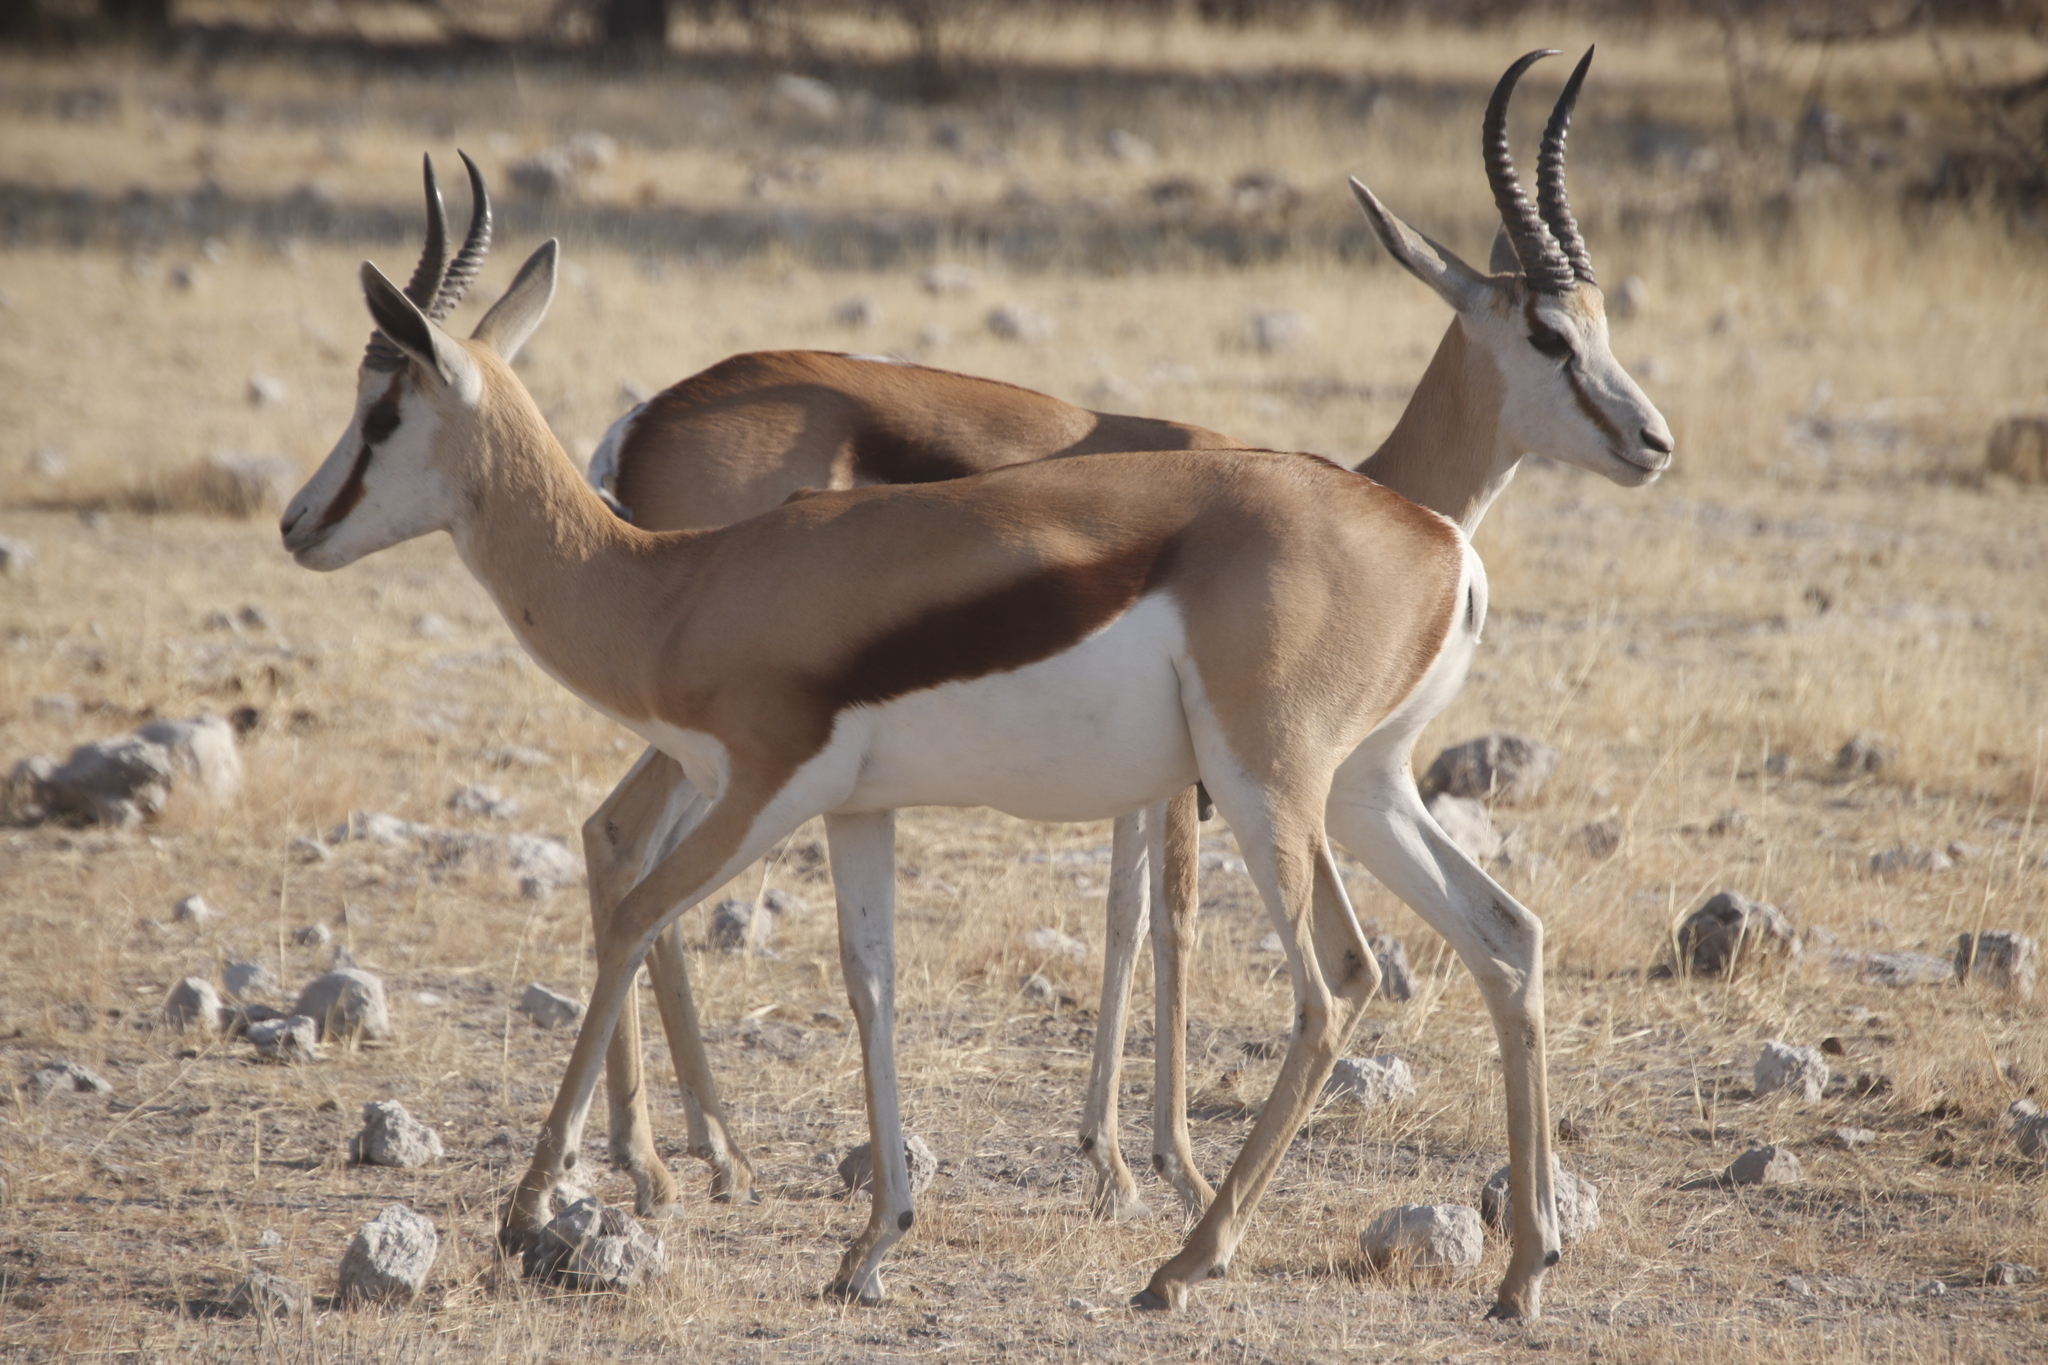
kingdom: Animalia
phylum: Chordata
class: Mammalia
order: Artiodactyla
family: Bovidae
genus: Antidorcas
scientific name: Antidorcas marsupialis
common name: Springbok
